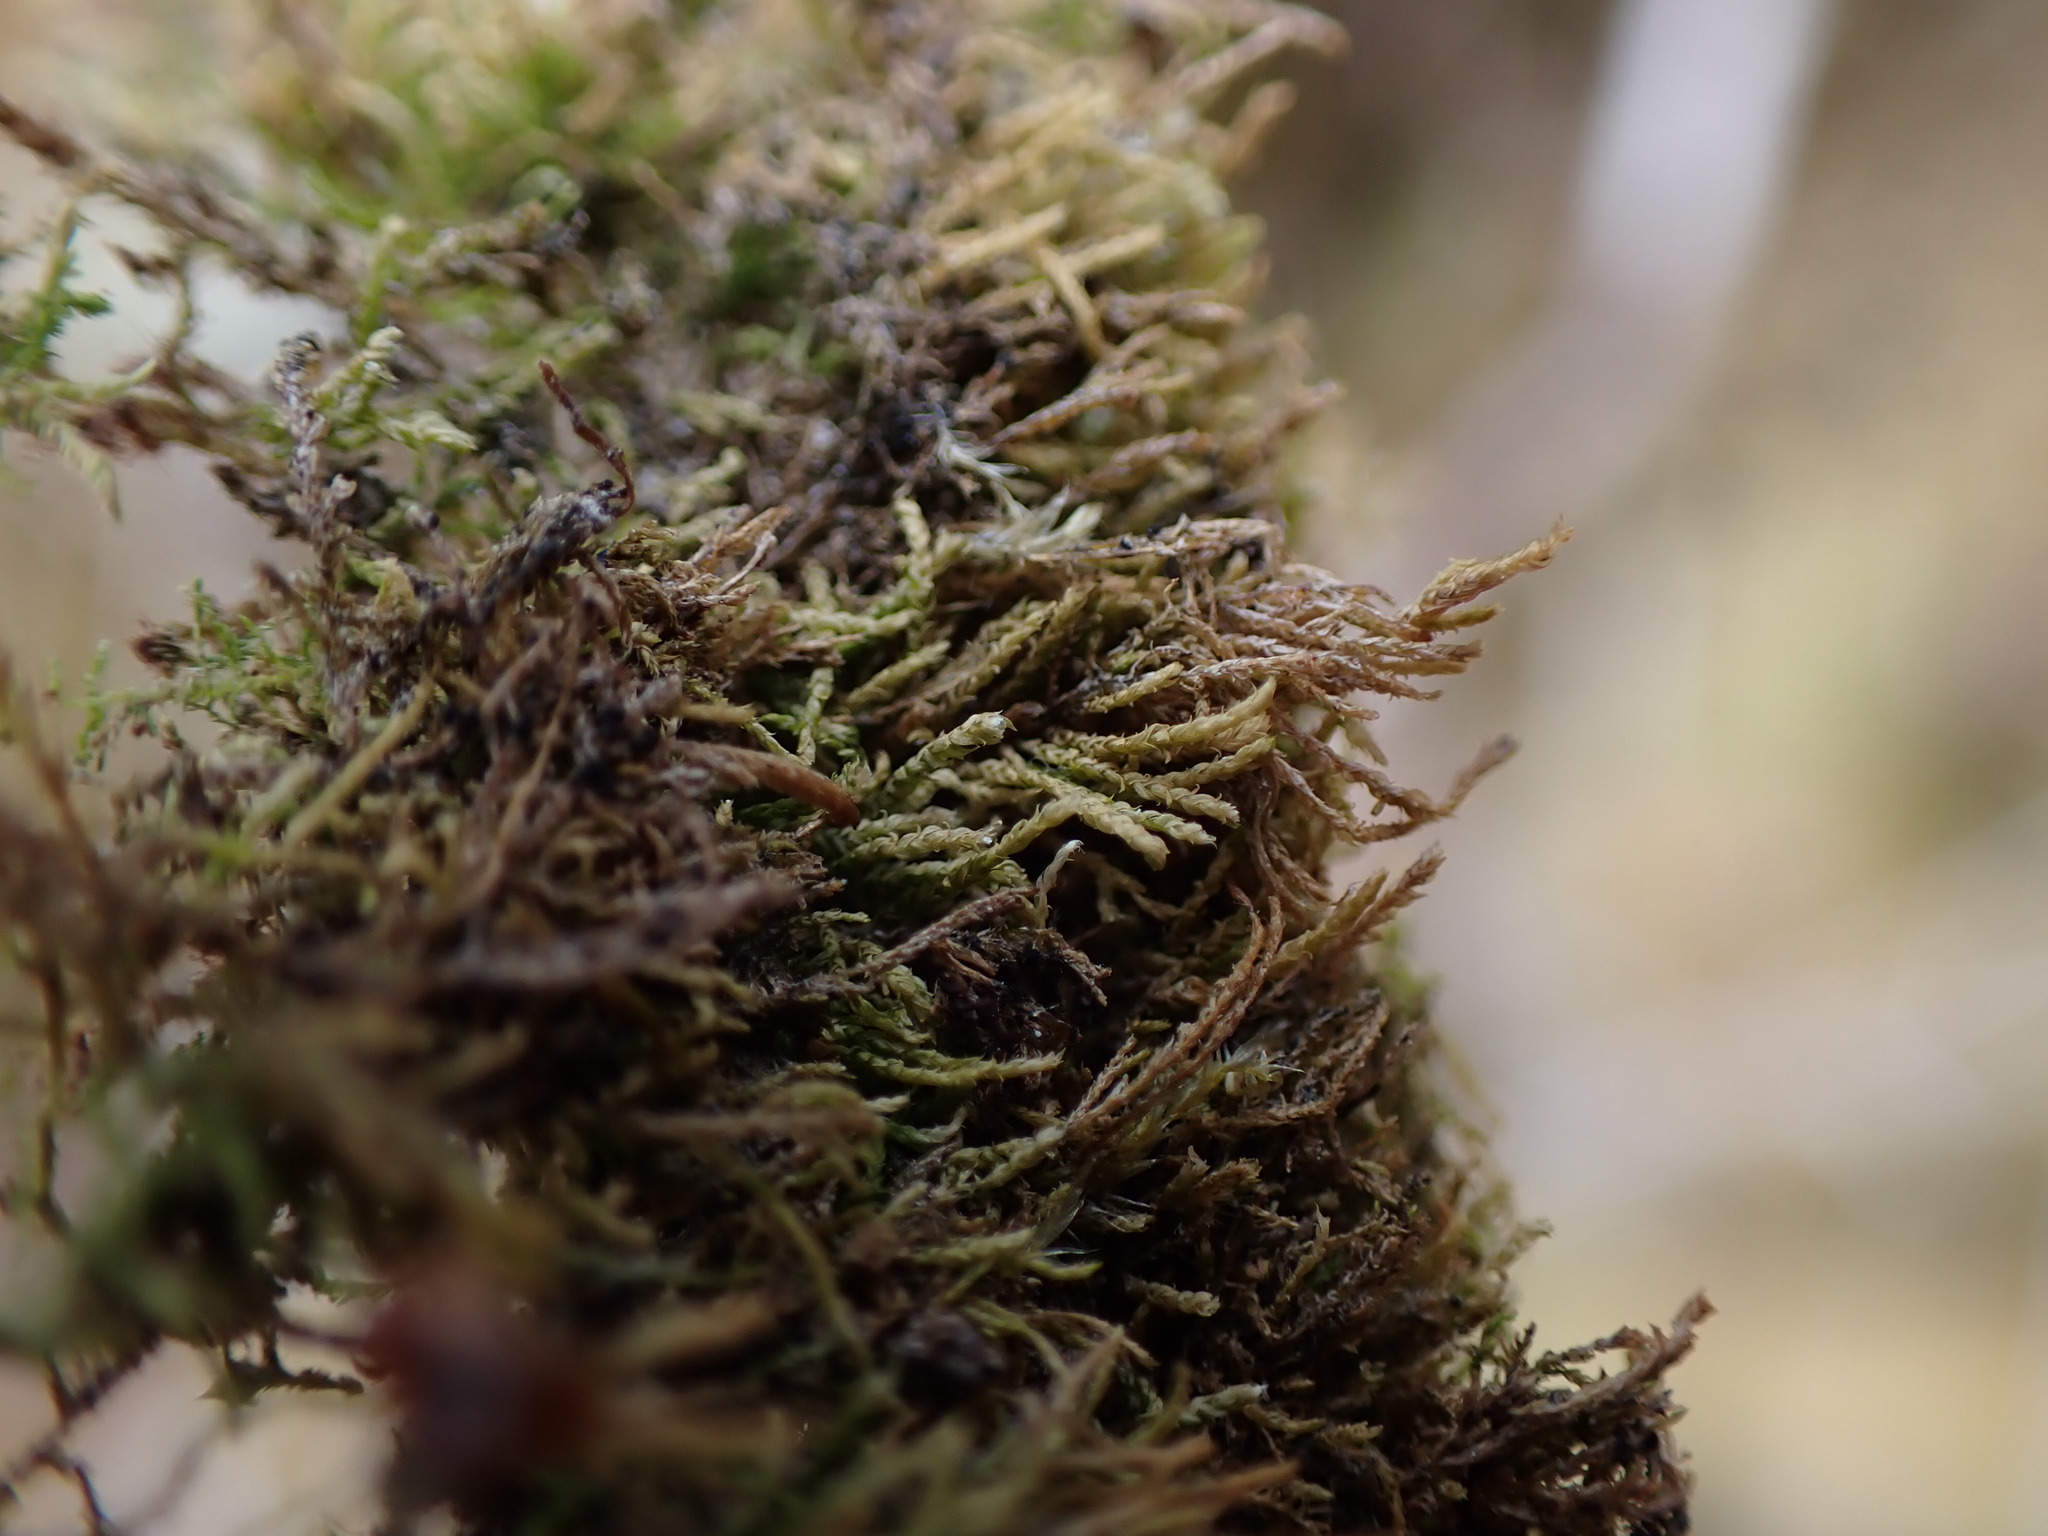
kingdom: Plantae
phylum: Bryophyta
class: Bryopsida
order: Hypnales
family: Lembophyllaceae
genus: Heterocladium
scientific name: Heterocladium macounii
